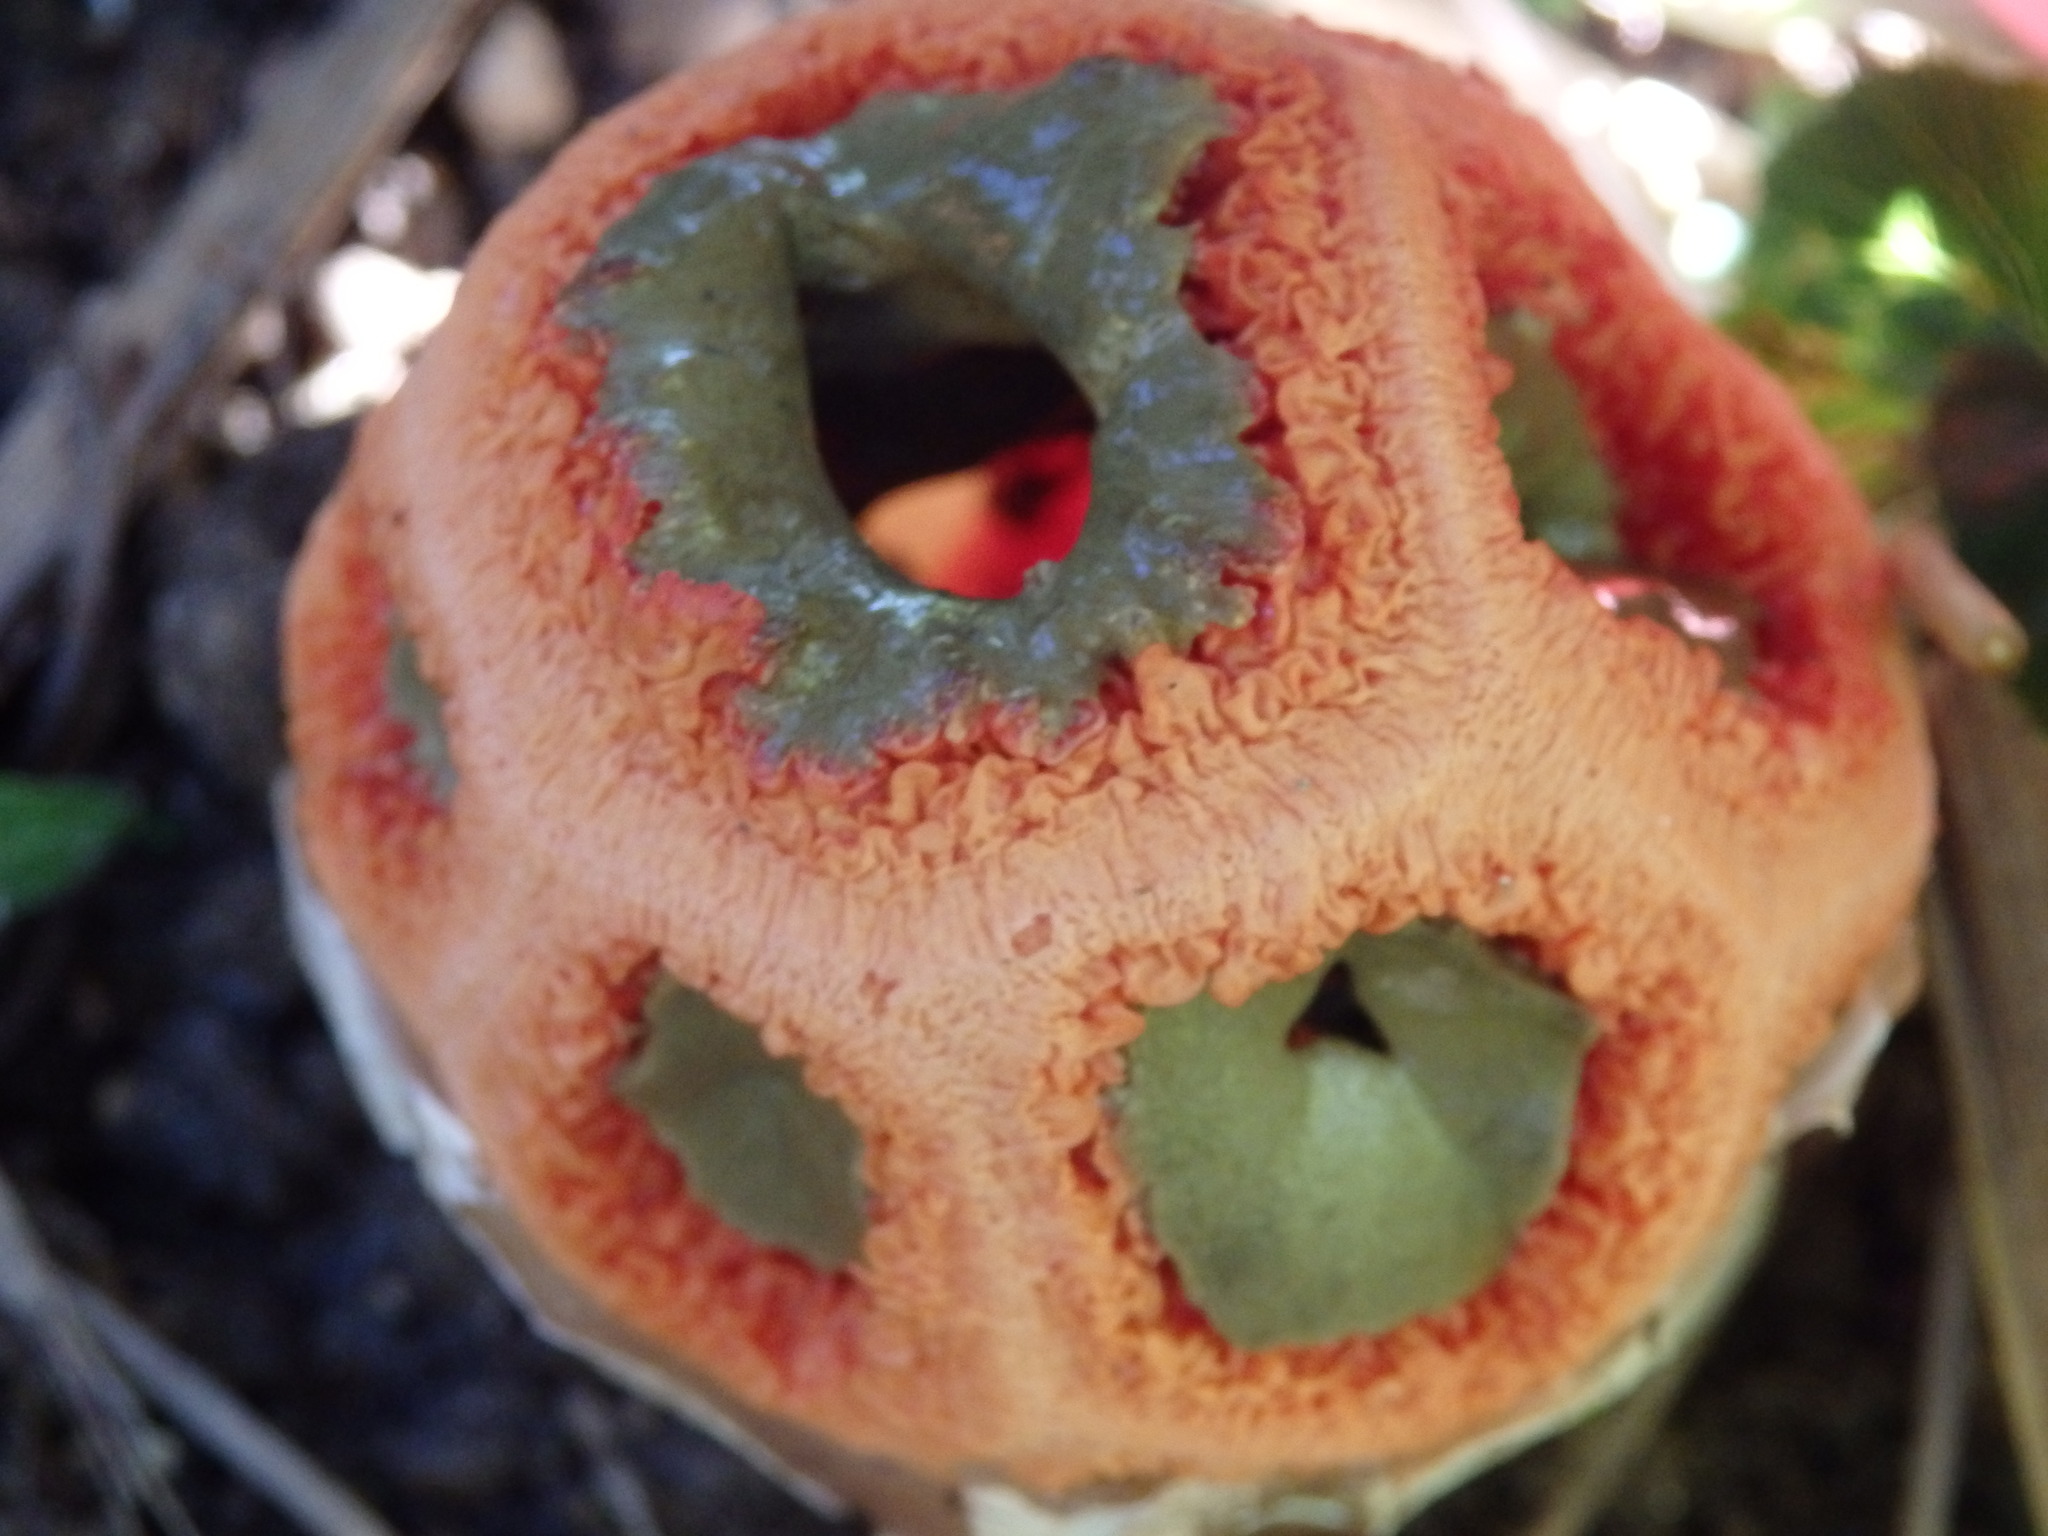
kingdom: Fungi
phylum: Basidiomycota
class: Agaricomycetes
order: Phallales
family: Phallaceae
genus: Clathrus
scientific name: Clathrus ruber
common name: Red cage
